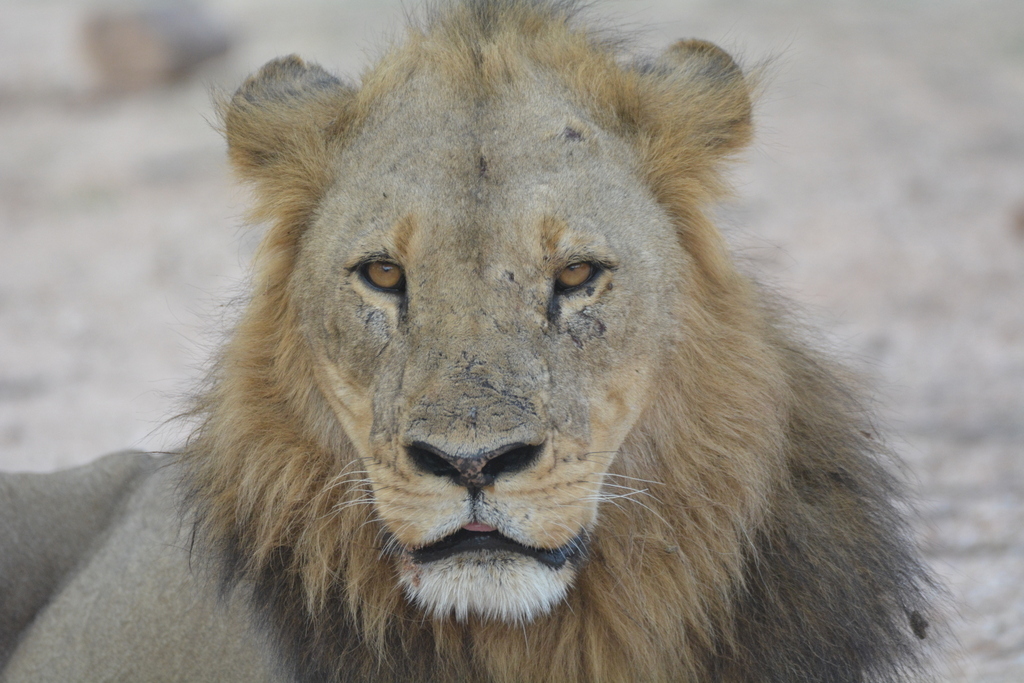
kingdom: Animalia
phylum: Chordata
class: Mammalia
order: Carnivora
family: Felidae
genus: Panthera
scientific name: Panthera leo
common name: Lion
